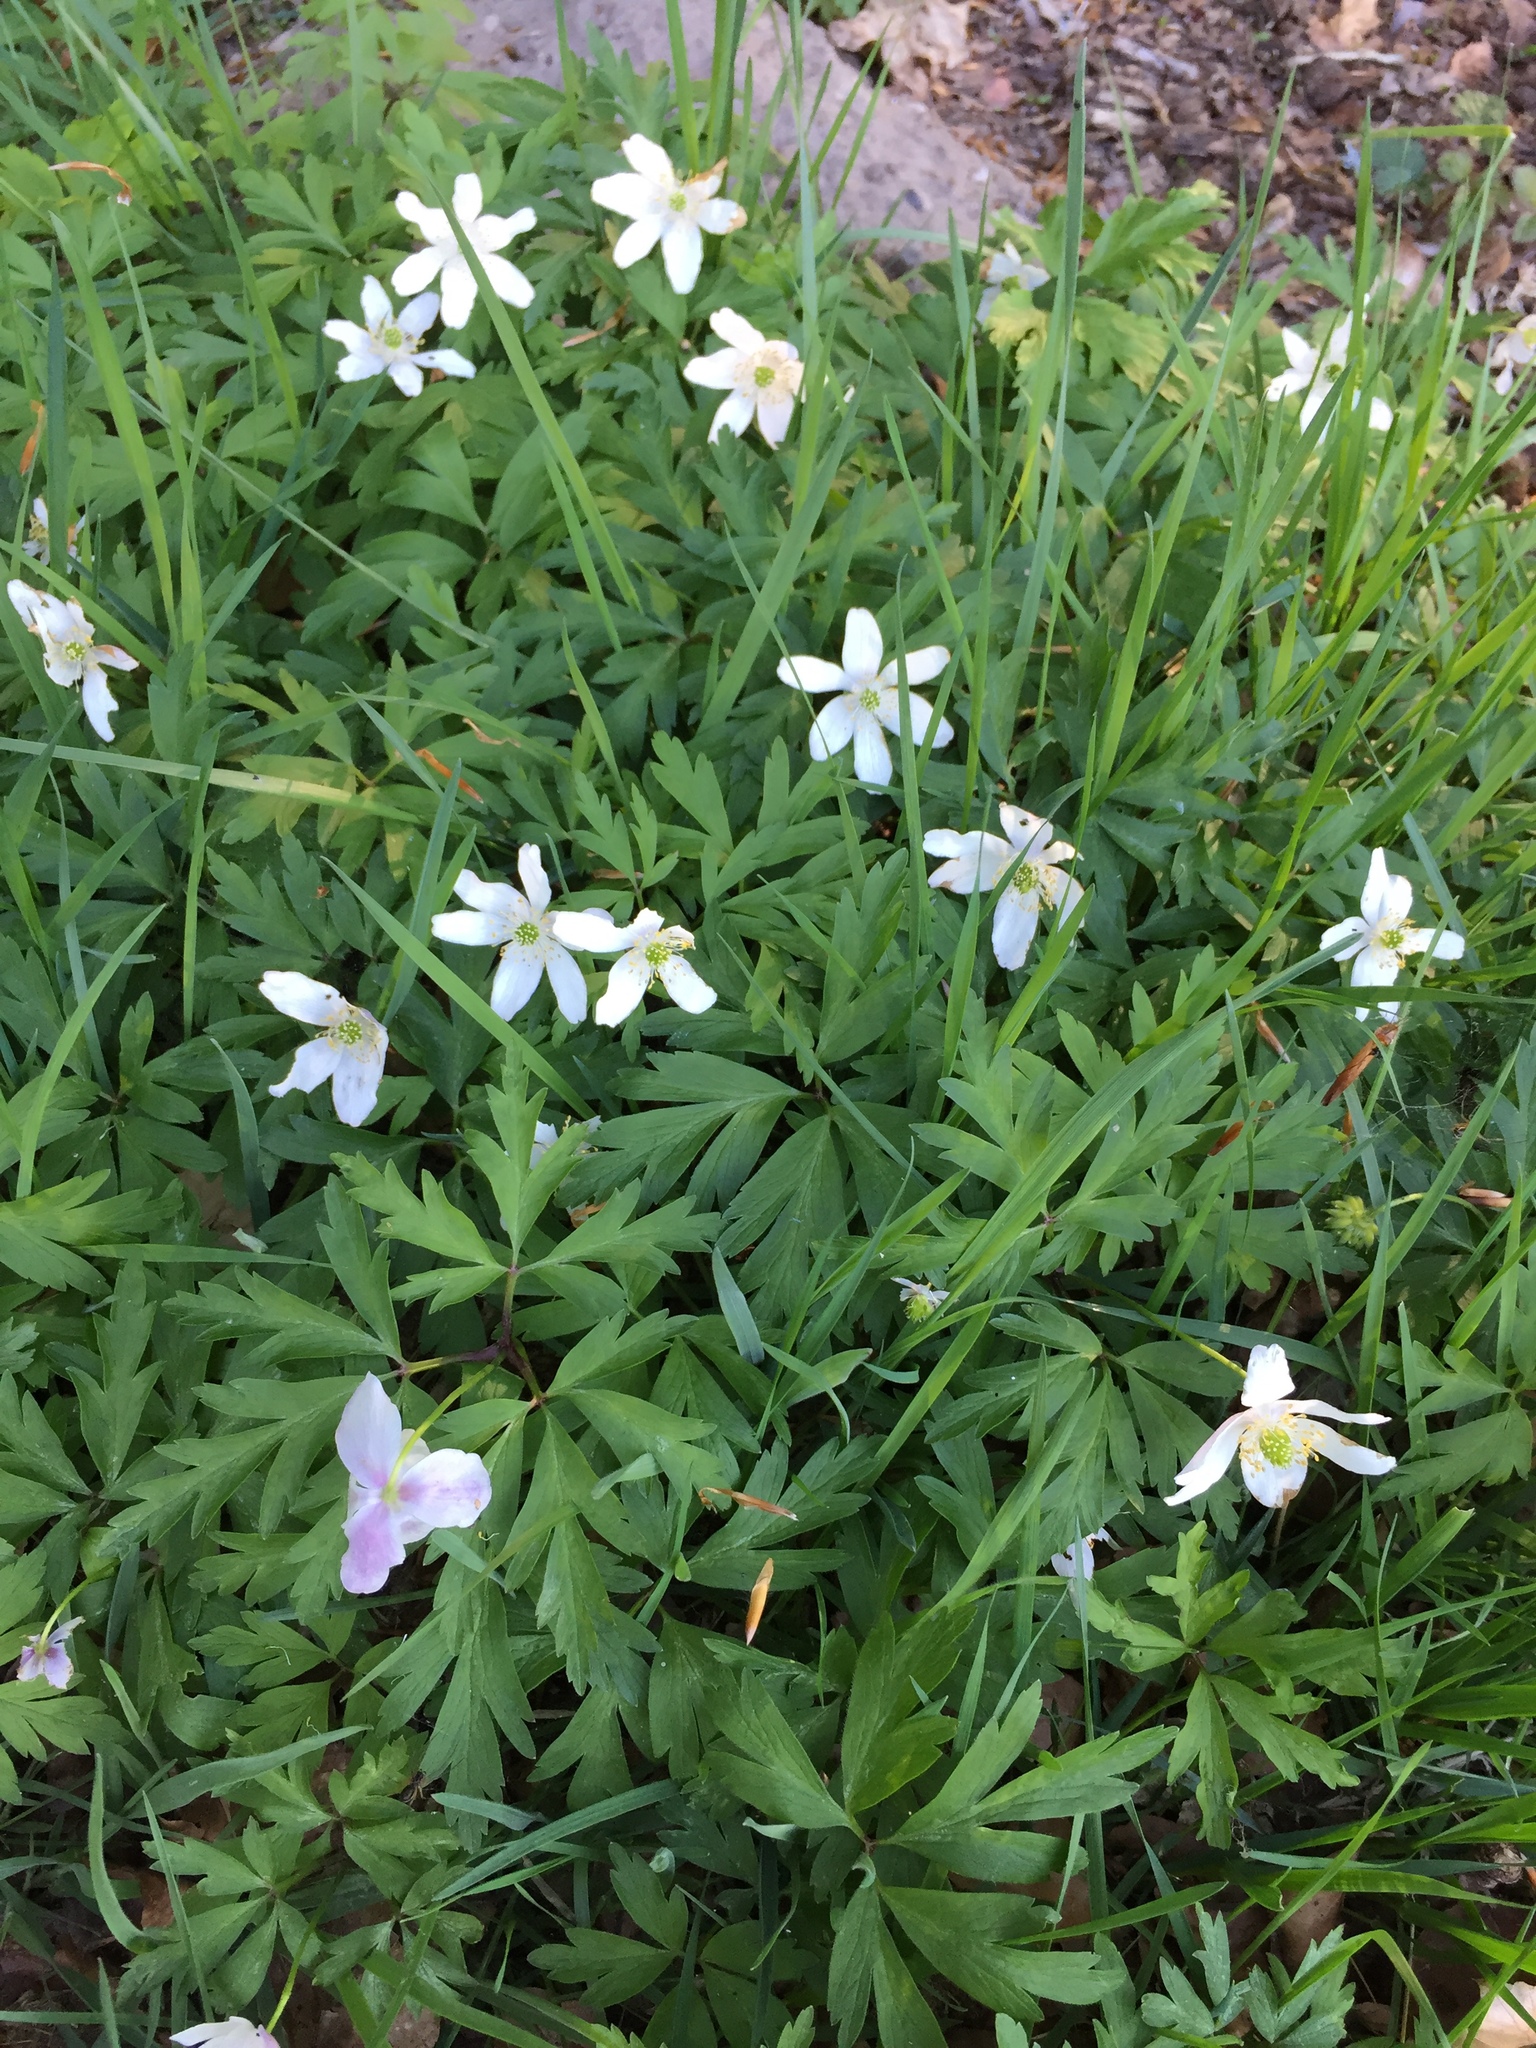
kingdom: Plantae
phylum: Tracheophyta
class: Magnoliopsida
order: Ranunculales
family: Ranunculaceae
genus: Anemone
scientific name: Anemone nemorosa
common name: Wood anemone
